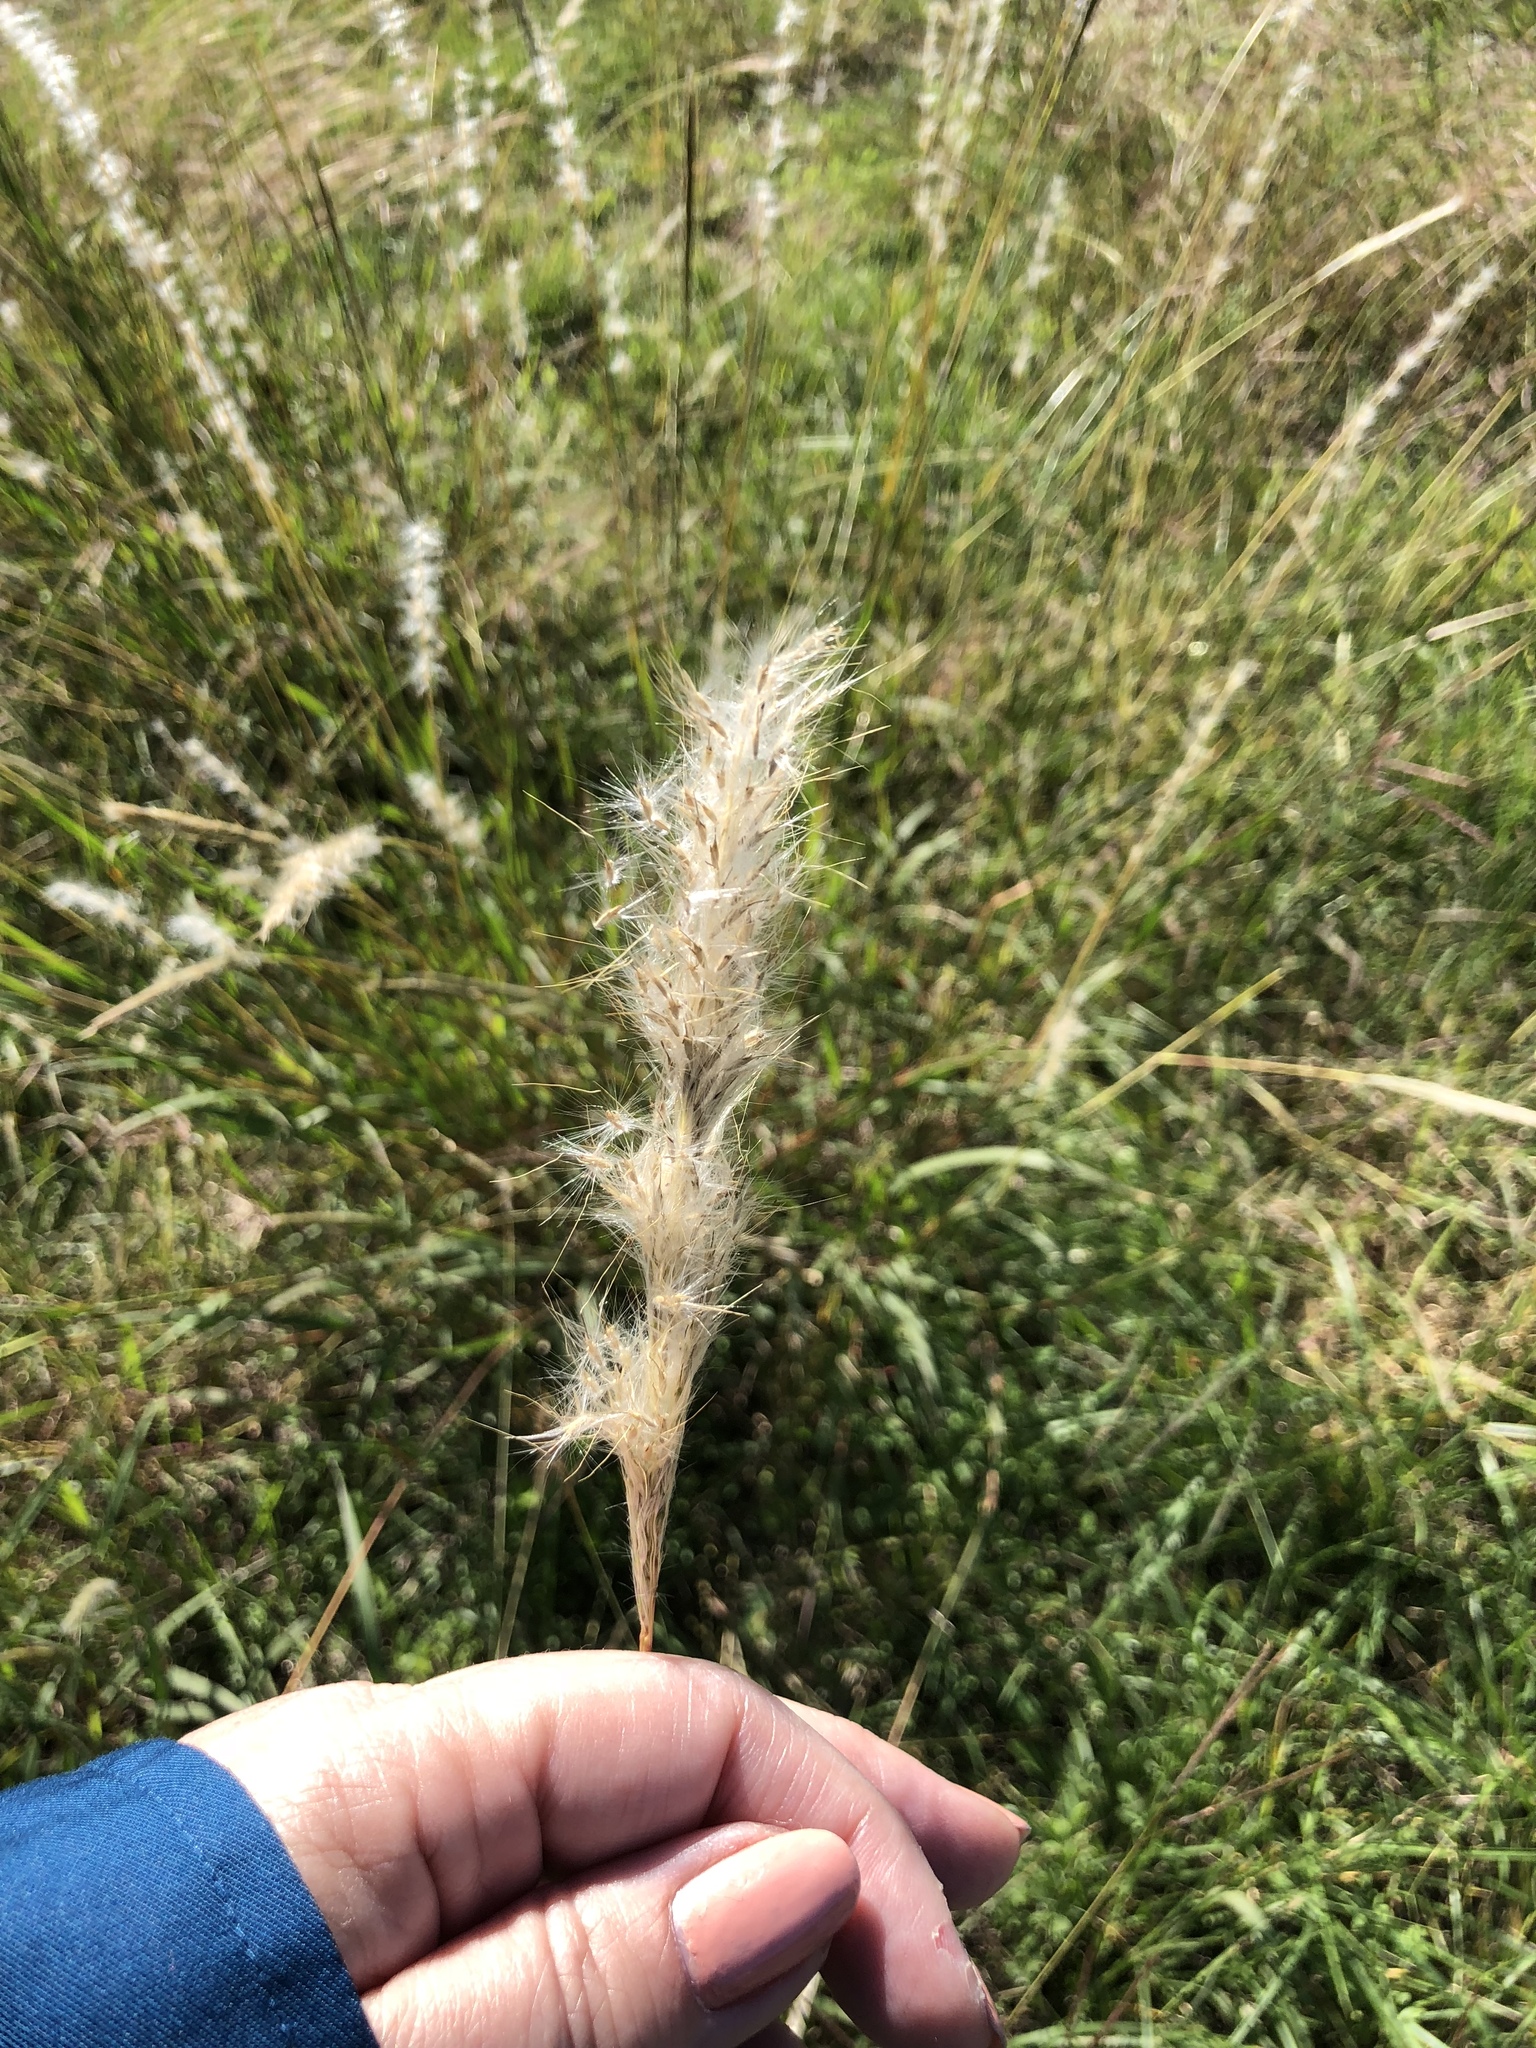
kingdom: Plantae
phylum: Tracheophyta
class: Liliopsida
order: Poales
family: Poaceae
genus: Bothriochloa
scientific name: Bothriochloa torreyana
